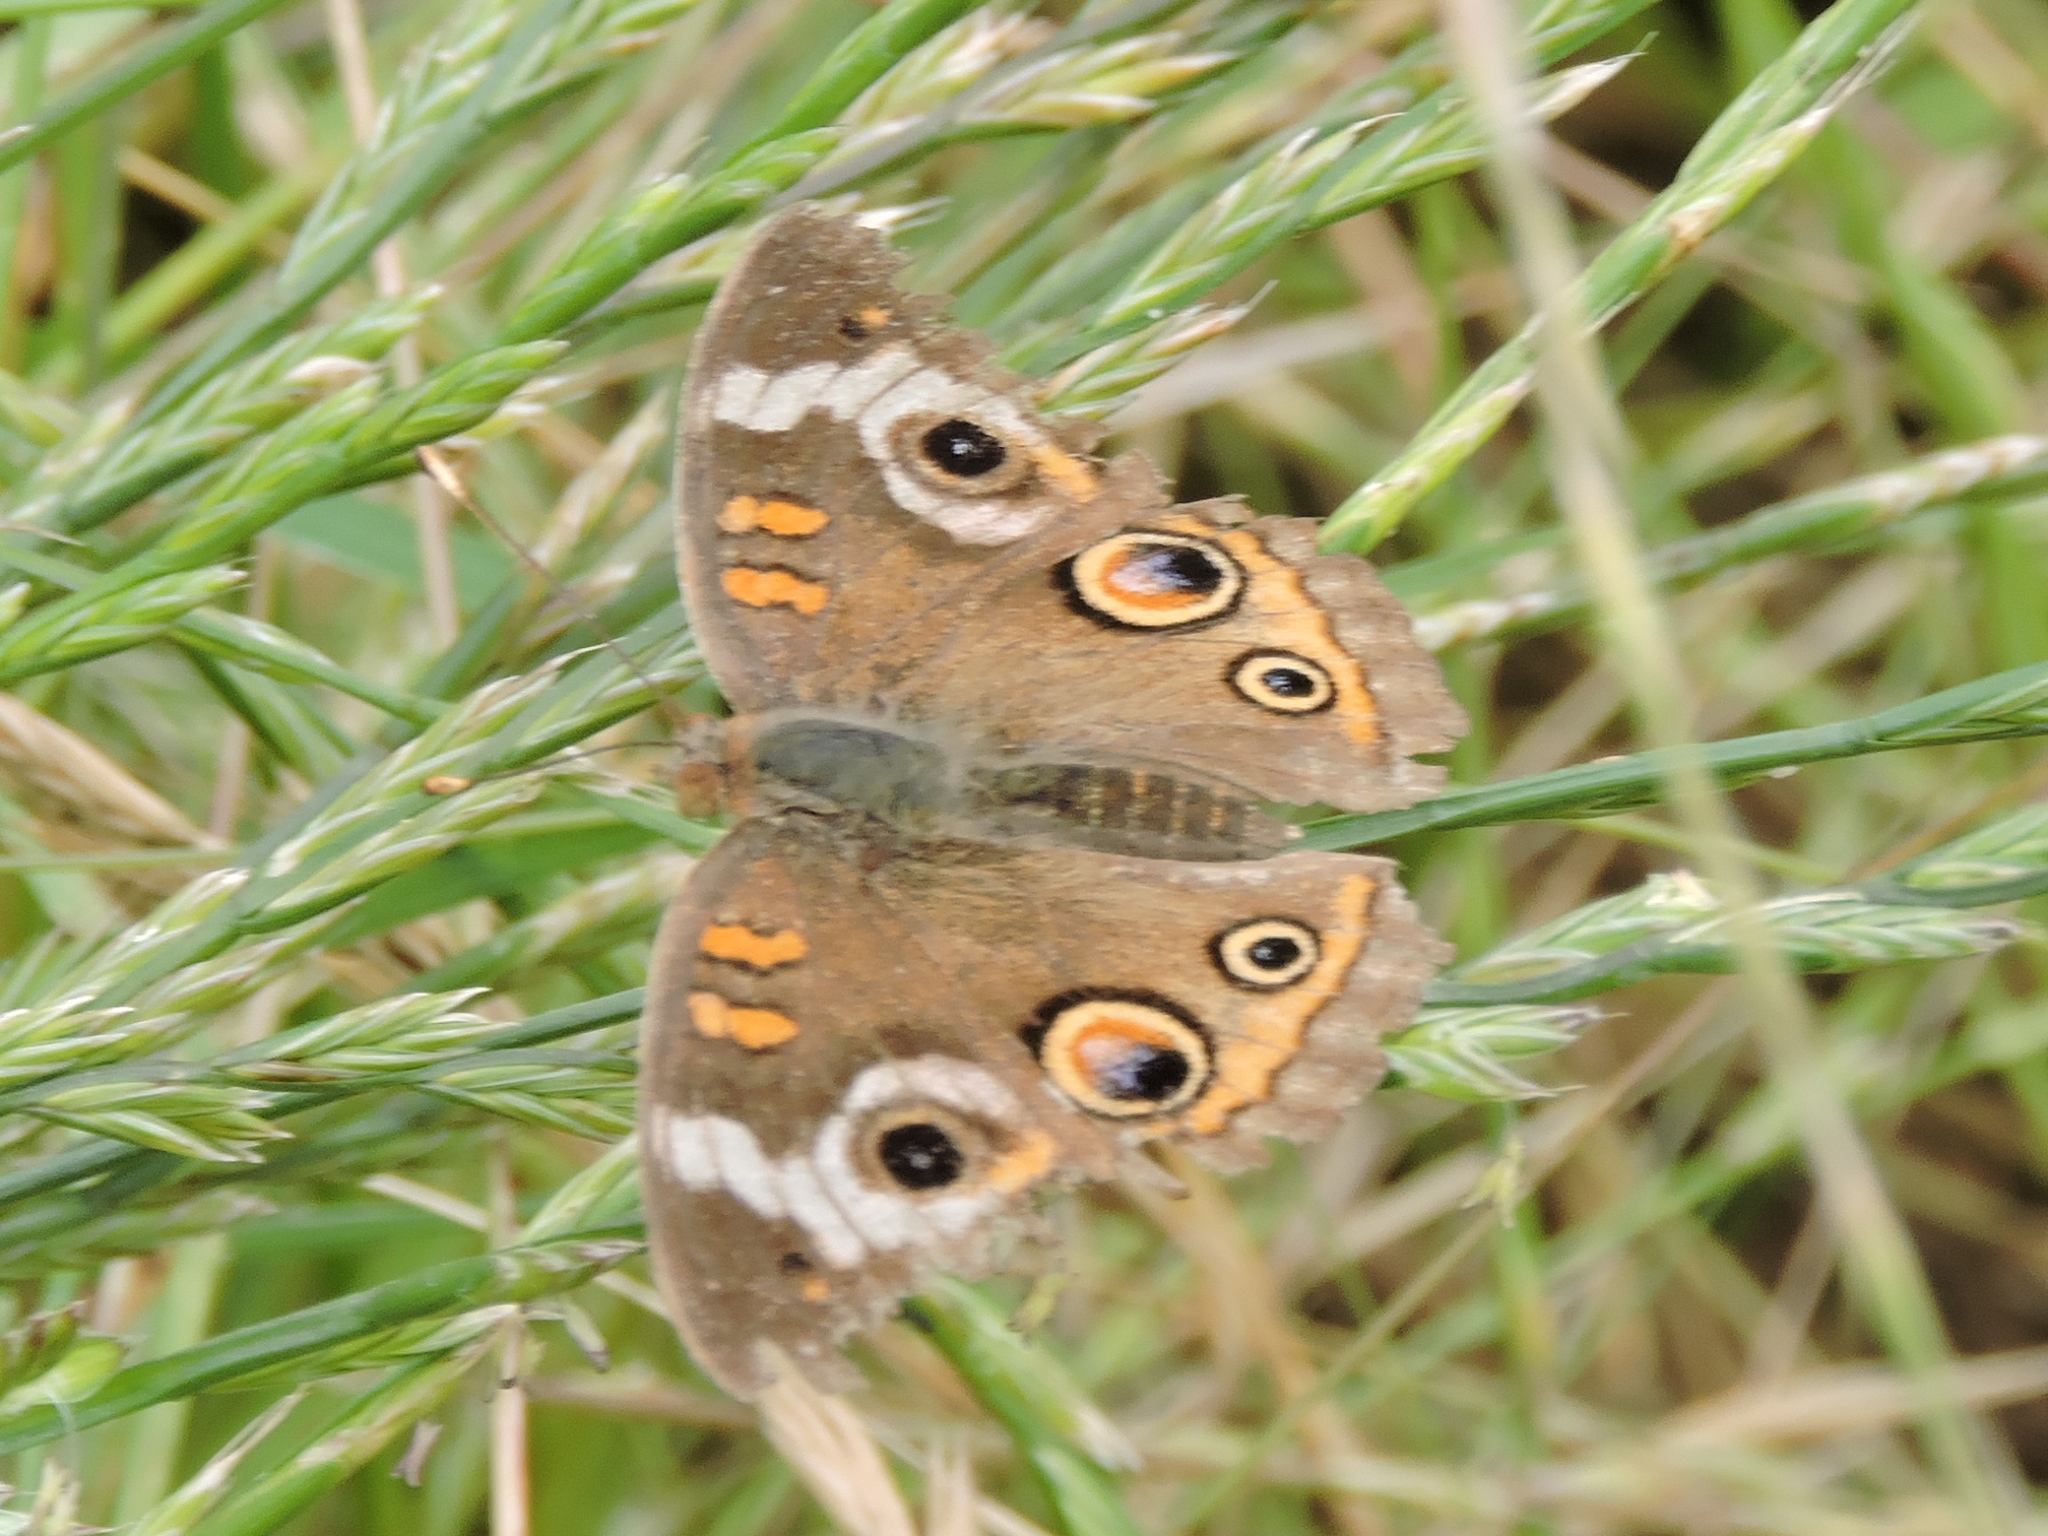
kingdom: Animalia
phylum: Arthropoda
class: Insecta
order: Lepidoptera
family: Nymphalidae
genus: Junonia
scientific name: Junonia coenia
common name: Common buckeye
